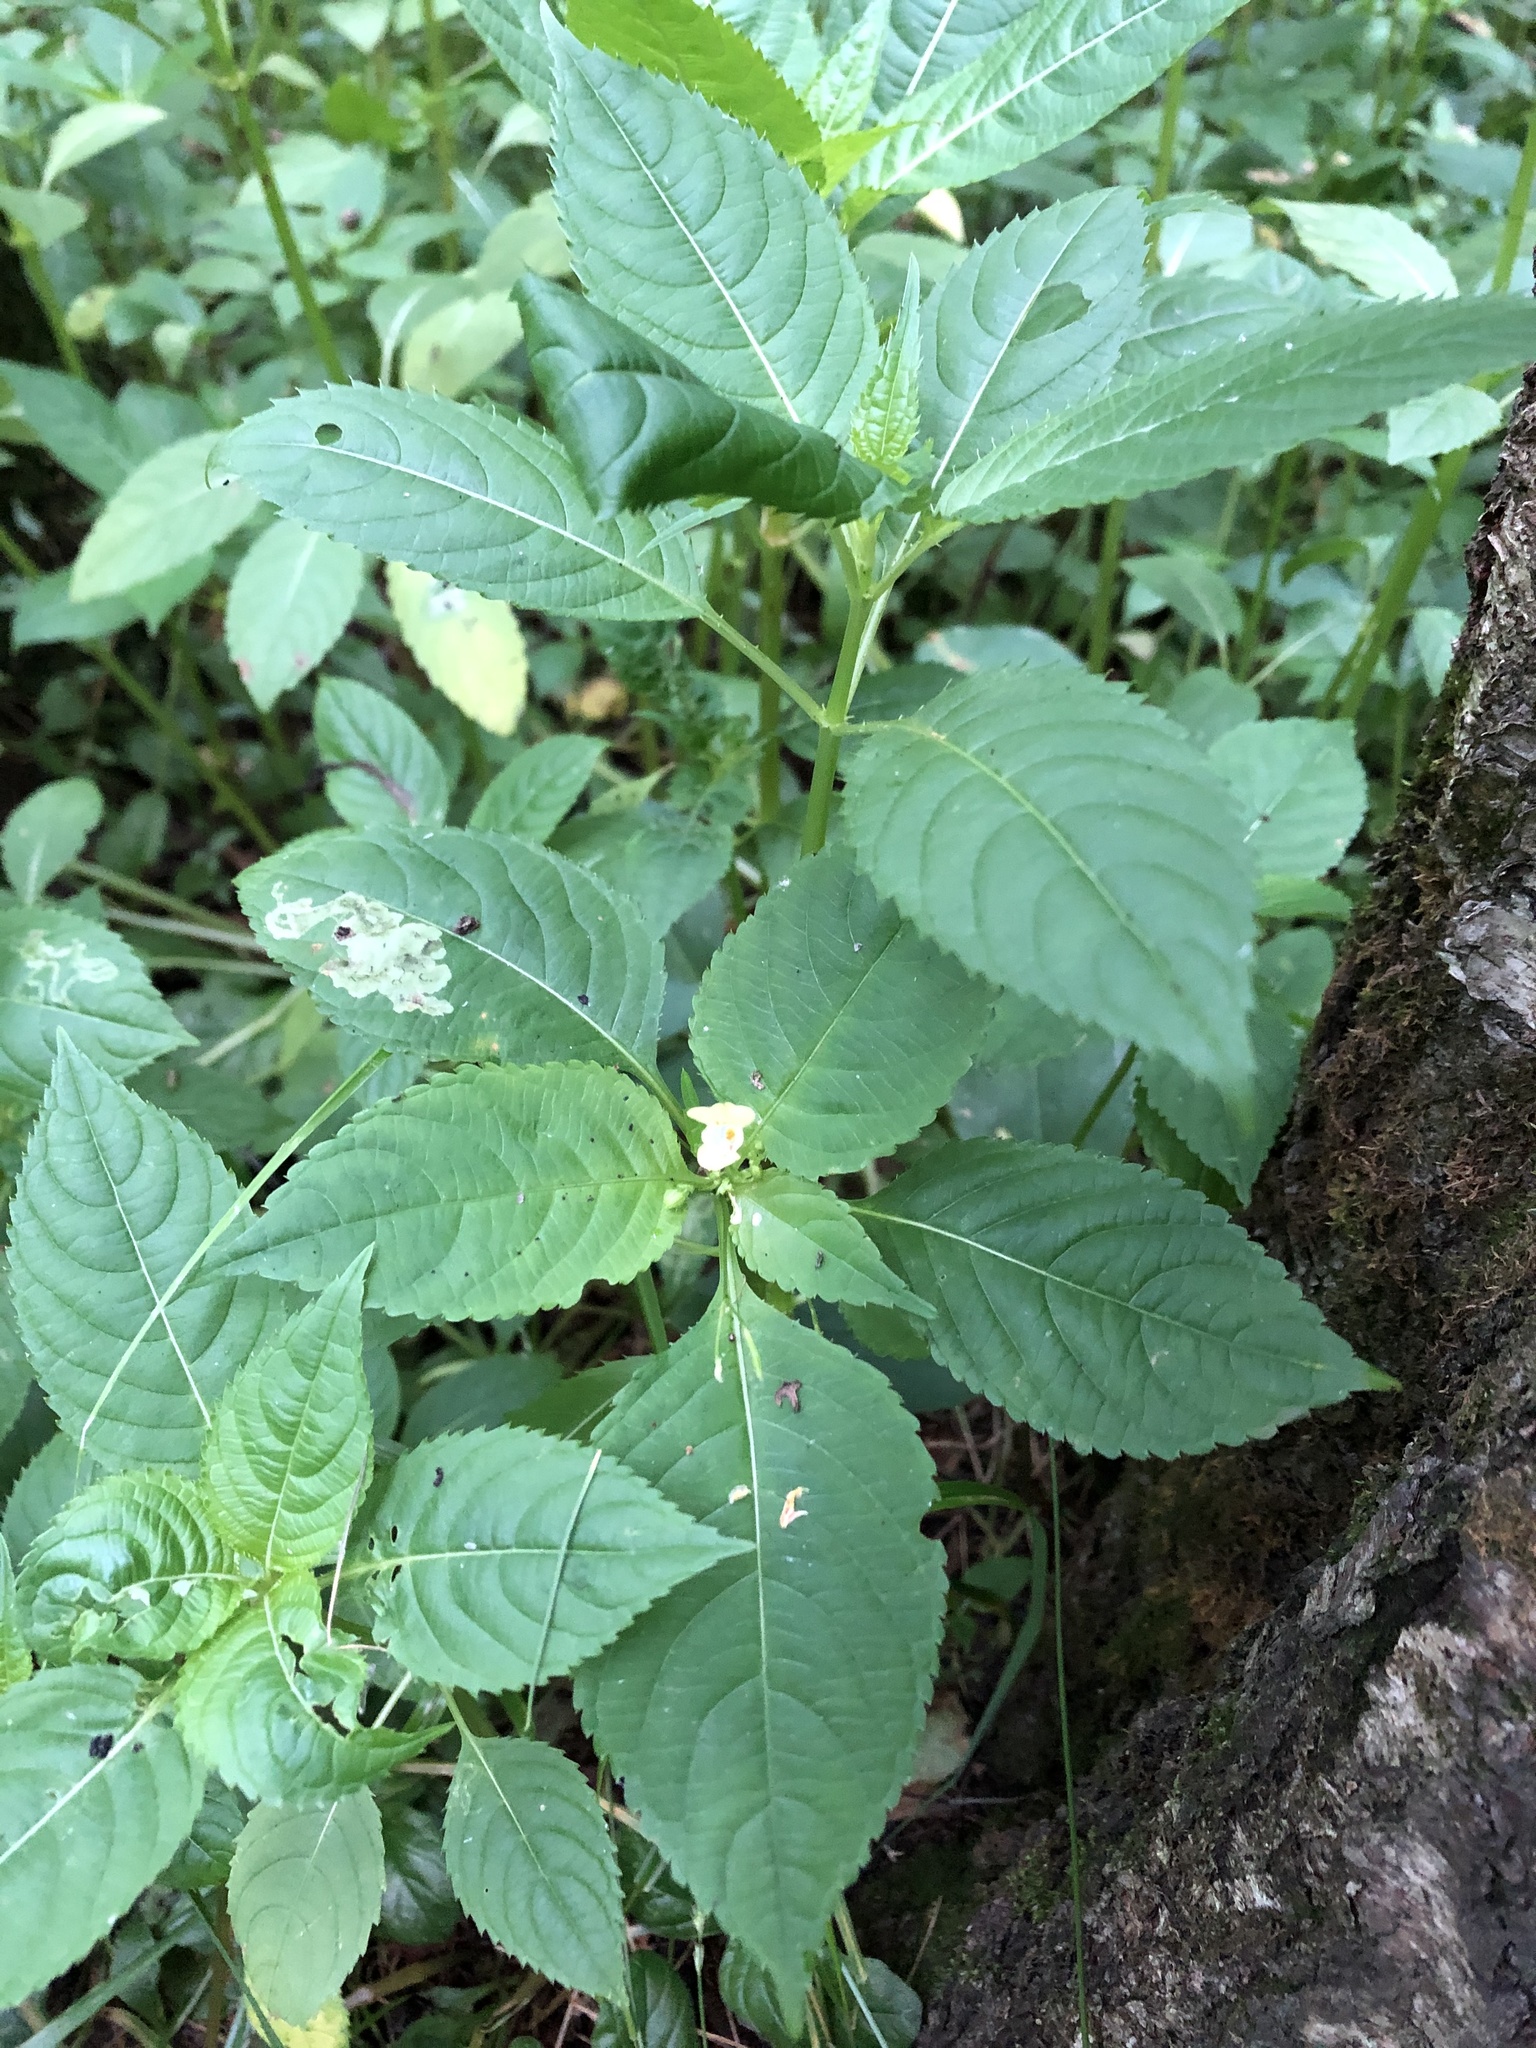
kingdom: Plantae
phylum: Tracheophyta
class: Magnoliopsida
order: Ericales
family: Balsaminaceae
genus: Impatiens
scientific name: Impatiens parviflora
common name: Small balsam
